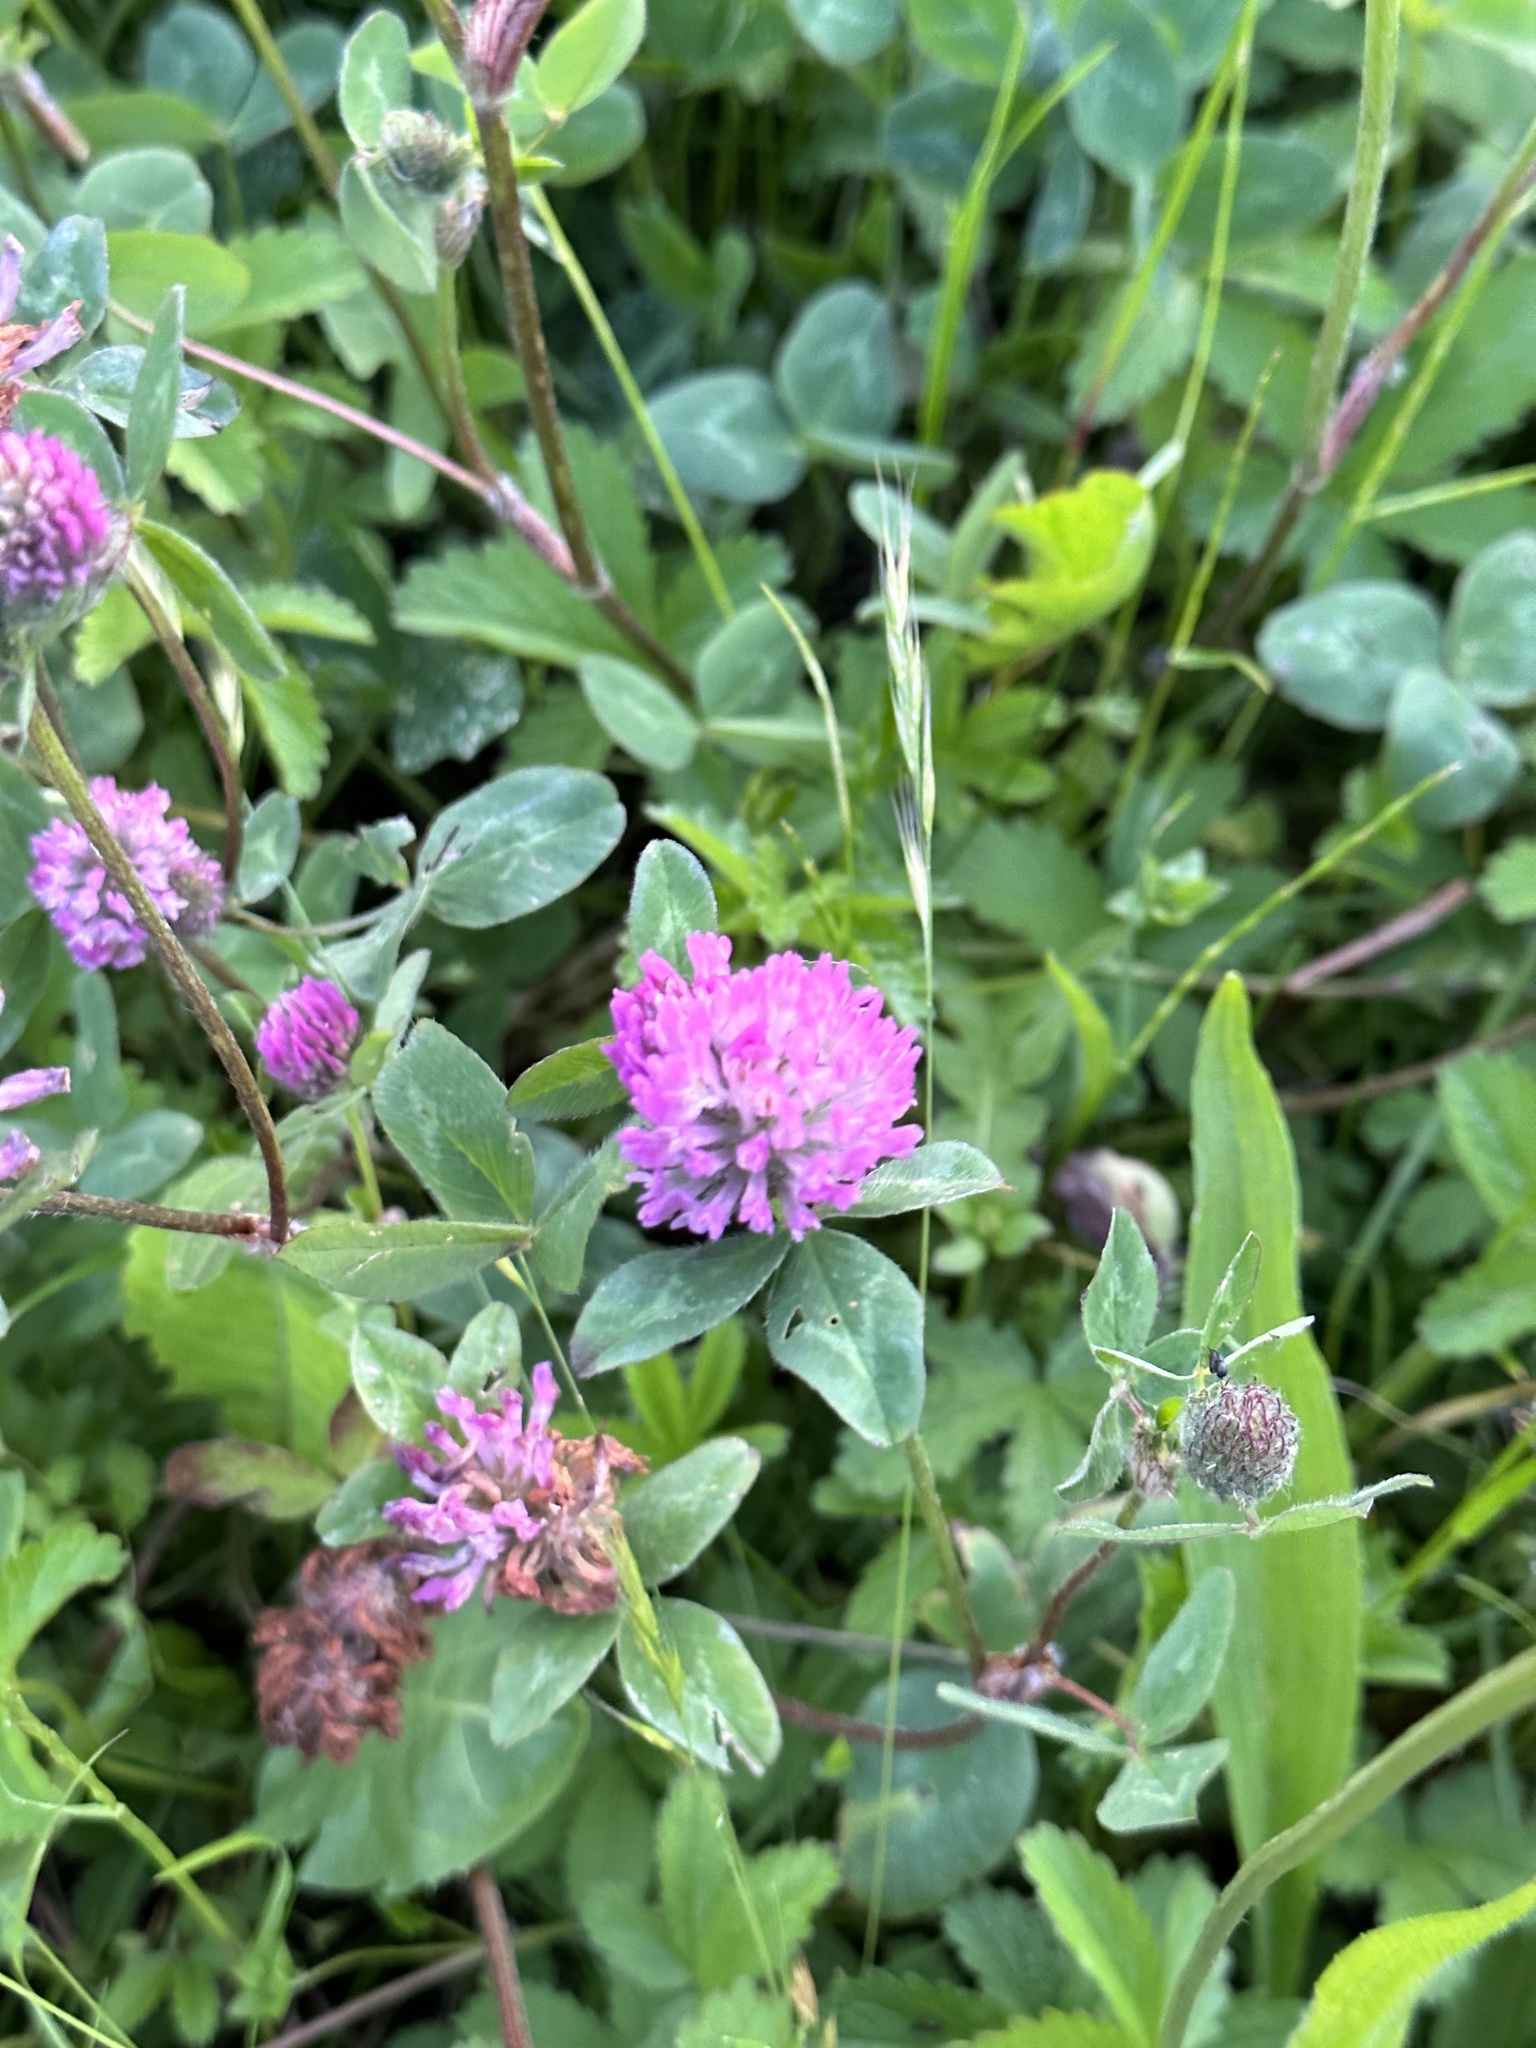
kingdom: Plantae
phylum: Tracheophyta
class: Magnoliopsida
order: Fabales
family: Fabaceae
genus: Trifolium
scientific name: Trifolium pratense
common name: Red clover
